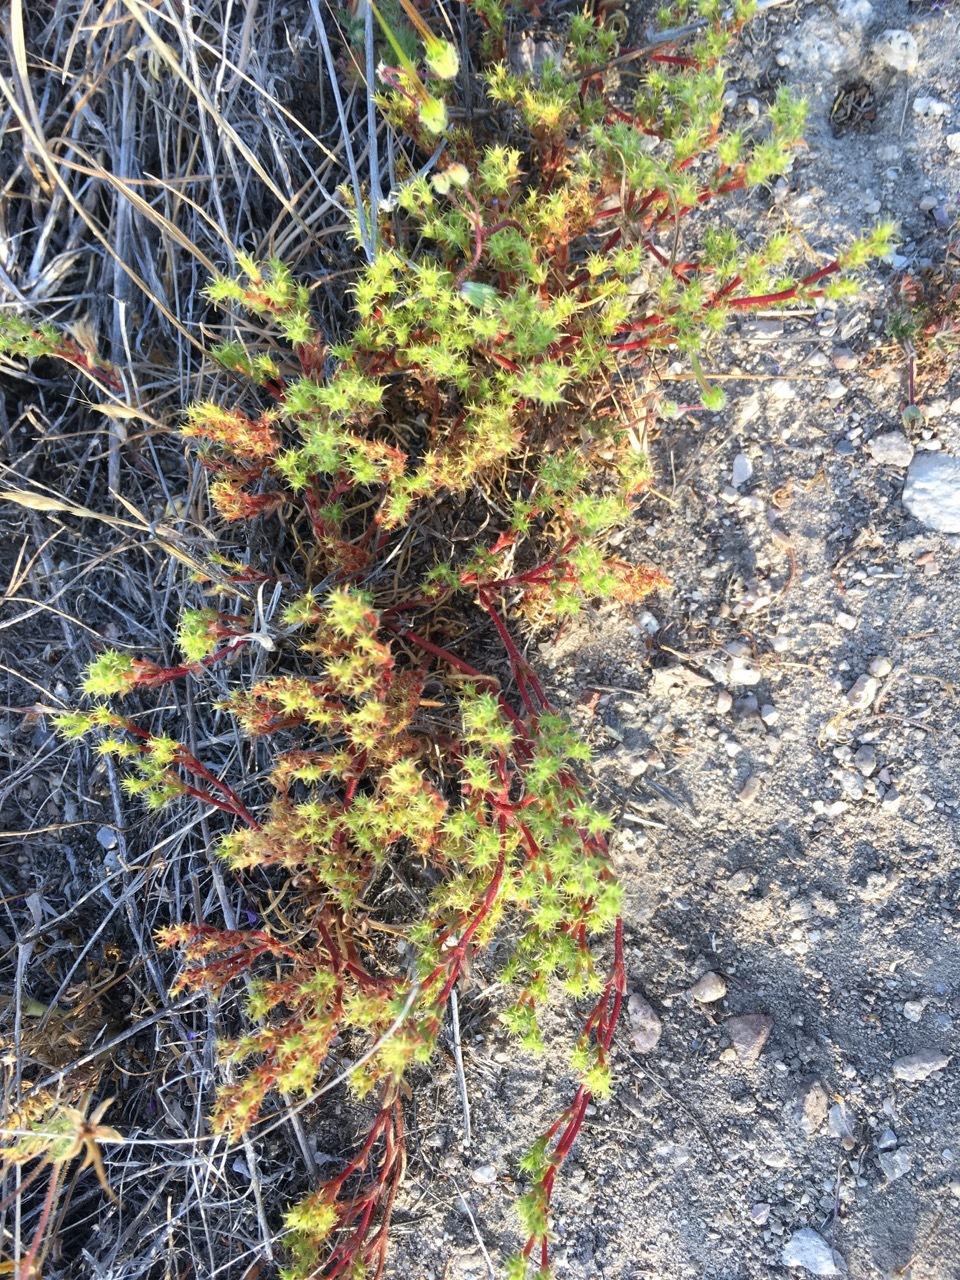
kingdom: Plantae
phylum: Tracheophyta
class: Magnoliopsida
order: Caryophyllales
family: Polygonaceae
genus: Lastarriaea
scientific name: Lastarriaea coriacea
